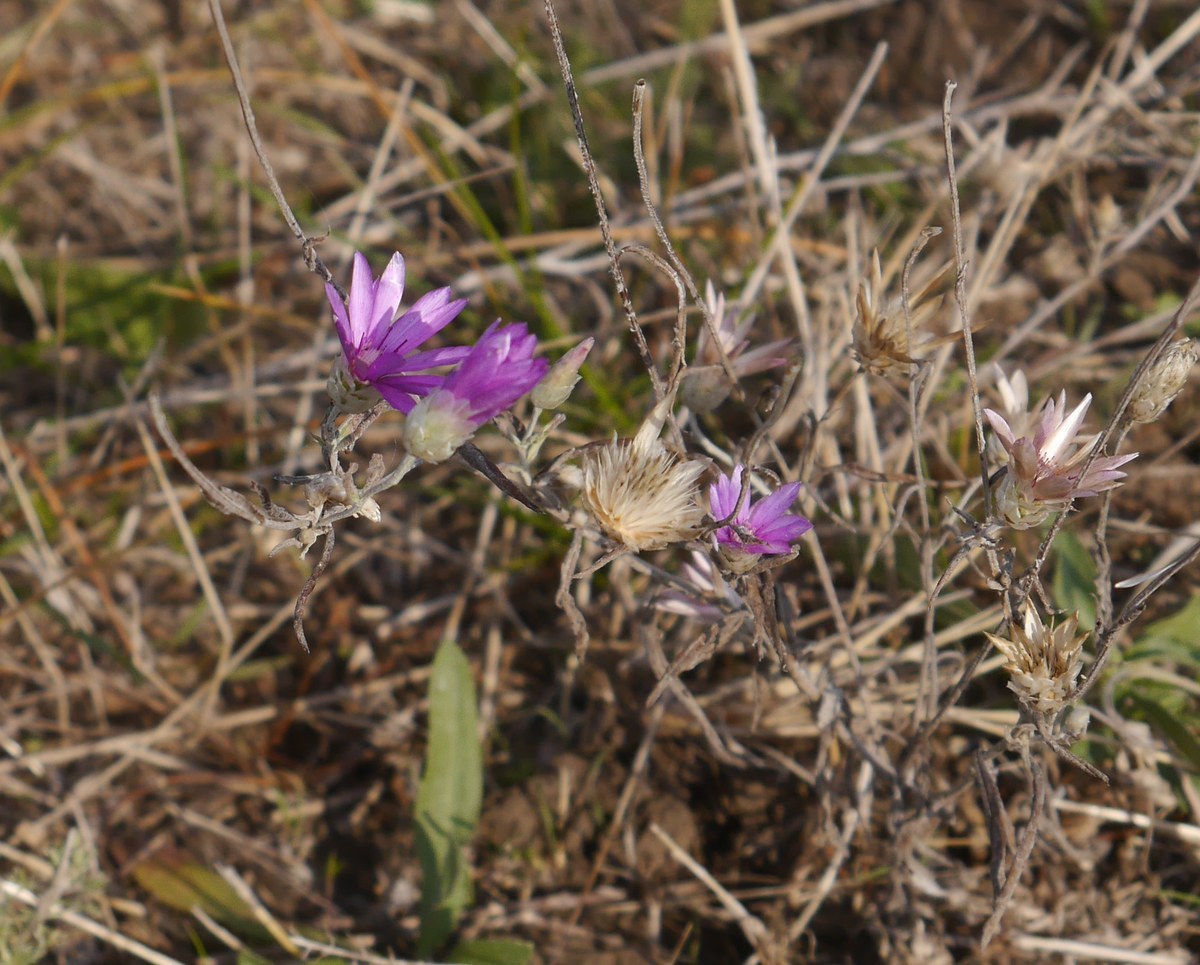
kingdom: Plantae
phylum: Tracheophyta
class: Magnoliopsida
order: Asterales
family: Asteraceae
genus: Xeranthemum
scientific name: Xeranthemum annuum
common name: Immortelle
